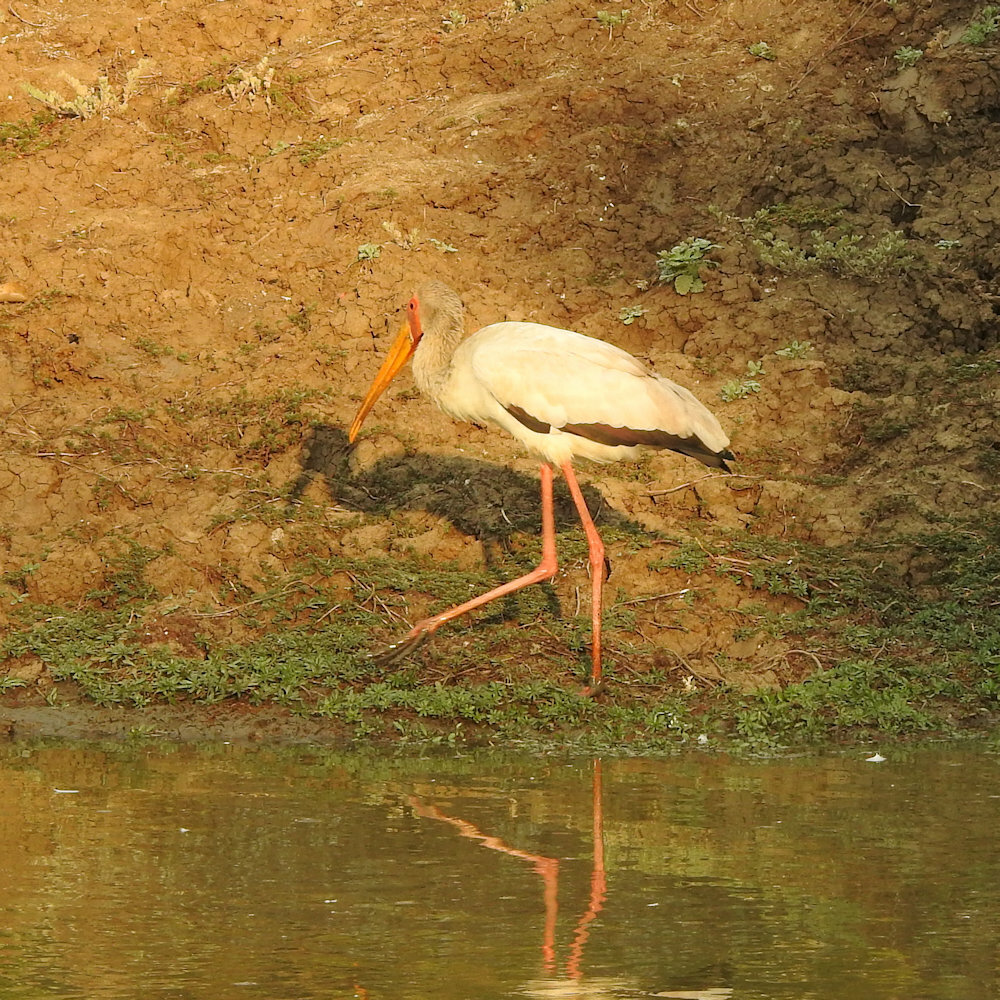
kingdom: Animalia
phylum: Chordata
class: Aves
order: Ciconiiformes
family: Ciconiidae
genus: Mycteria
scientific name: Mycteria ibis
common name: Yellow-billed stork
